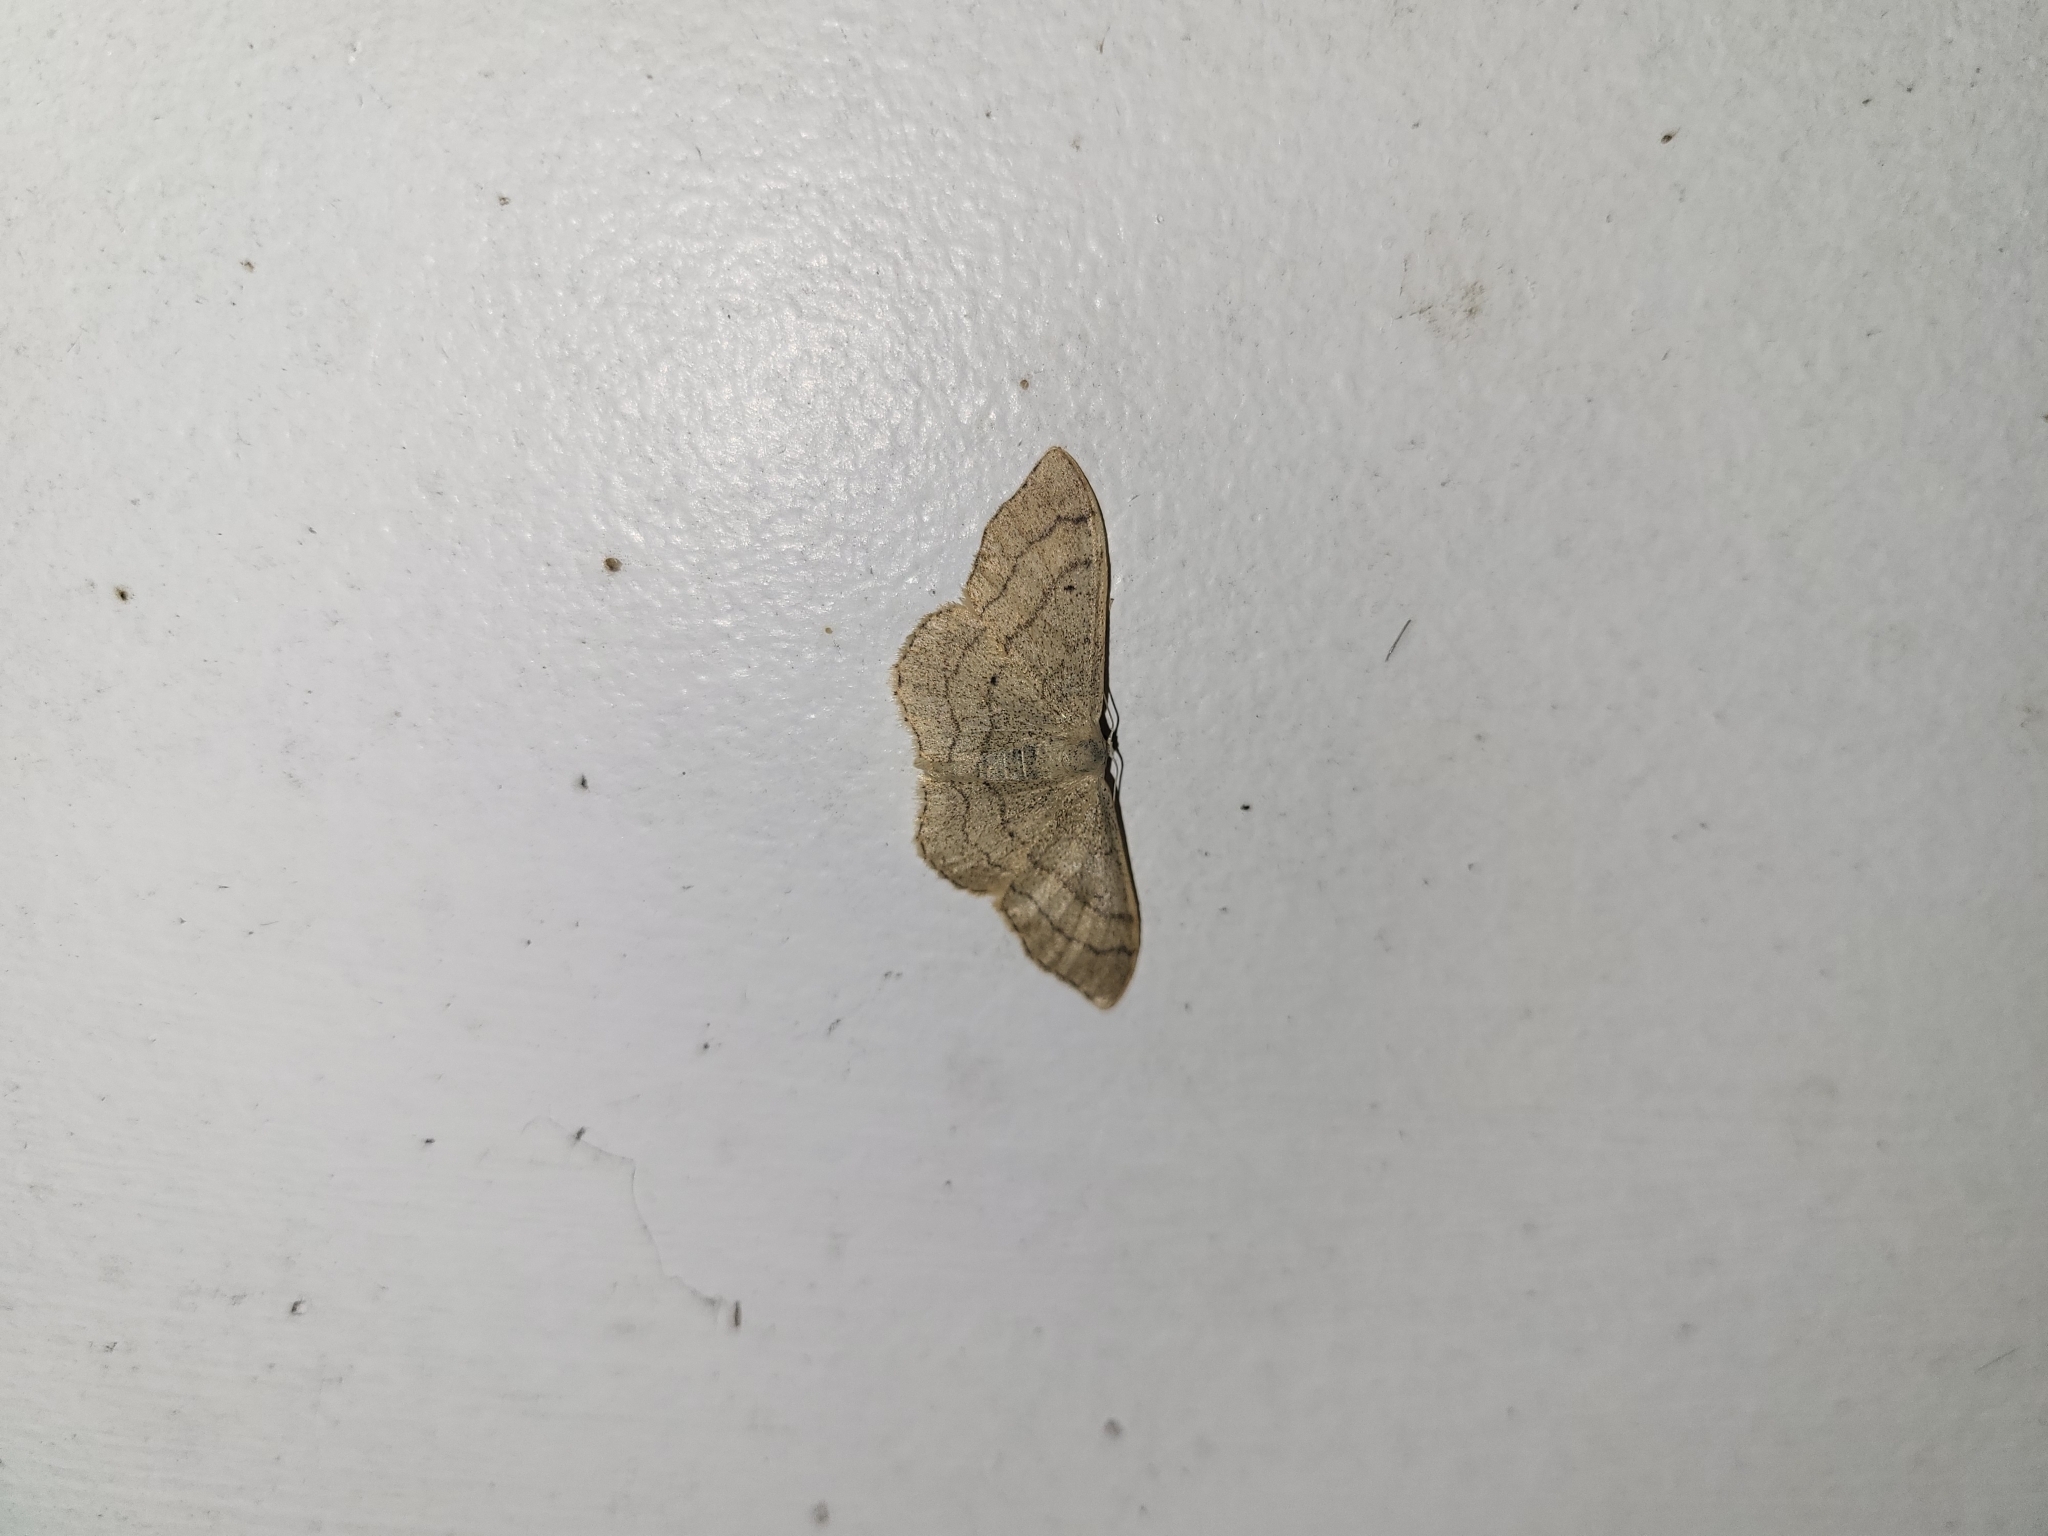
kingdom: Animalia
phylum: Arthropoda
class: Insecta
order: Lepidoptera
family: Geometridae
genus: Idaea
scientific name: Idaea aversata
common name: Riband wave
